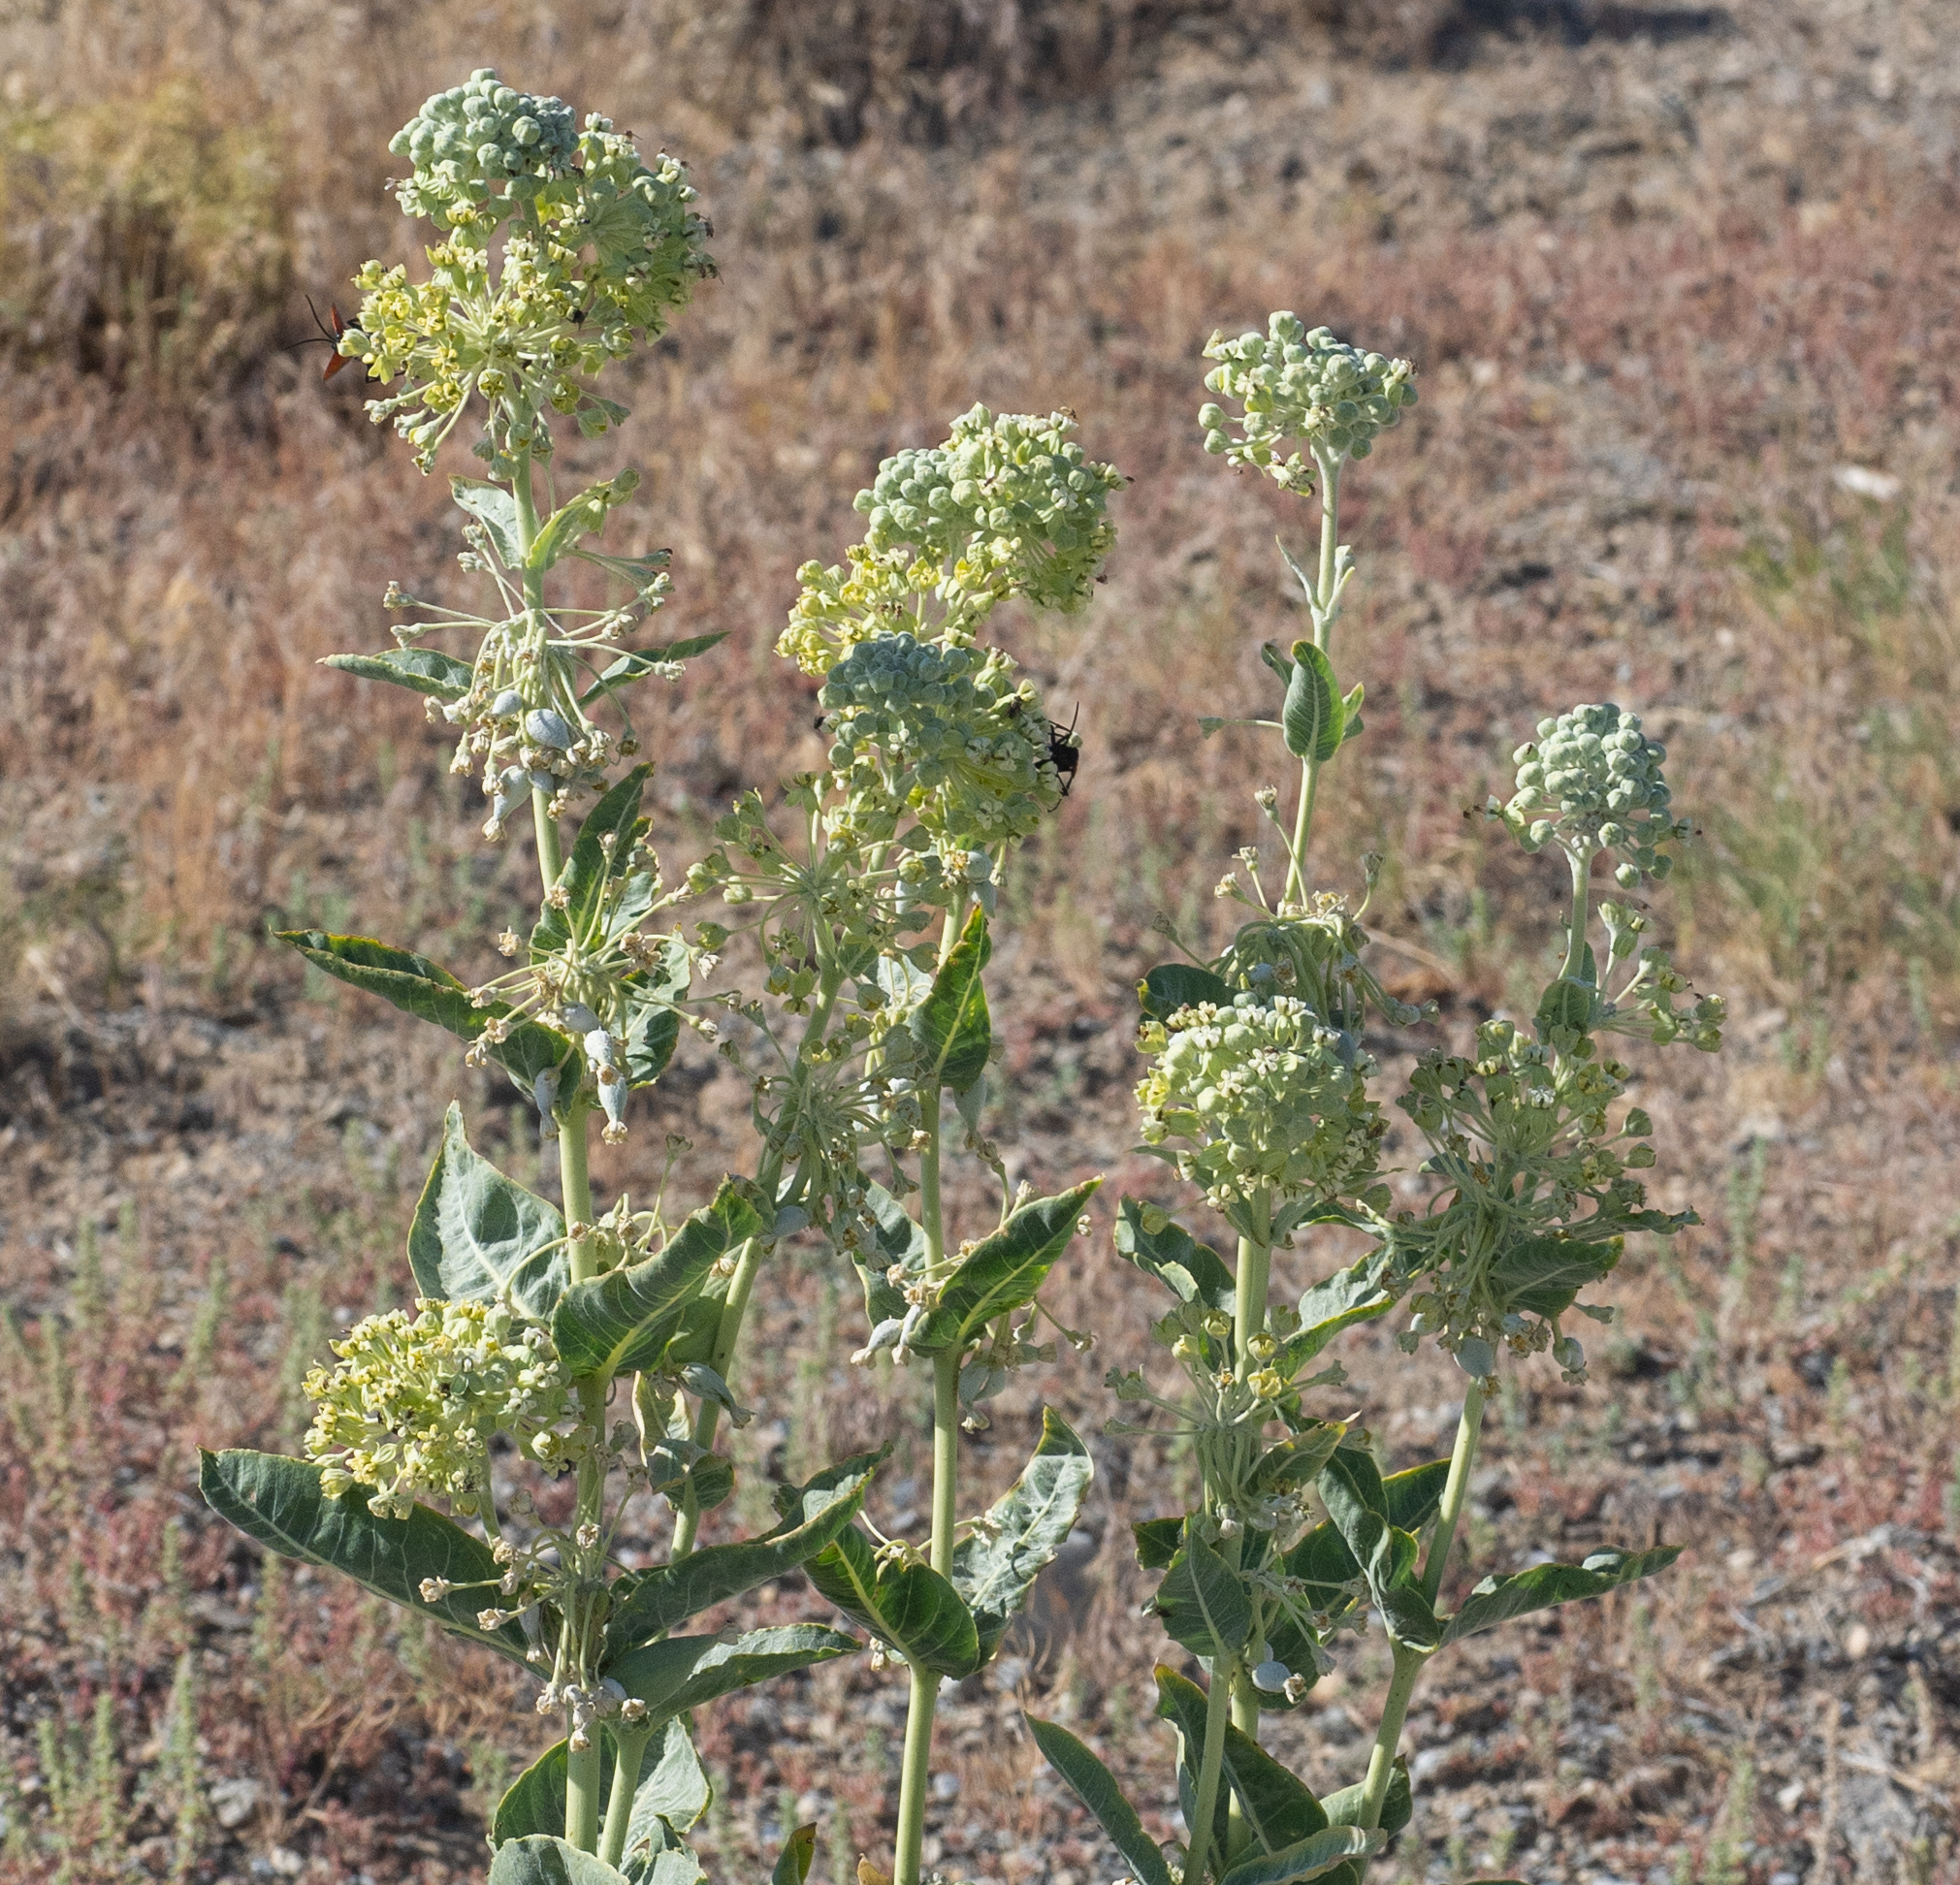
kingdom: Plantae
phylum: Tracheophyta
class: Magnoliopsida
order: Gentianales
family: Apocynaceae
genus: Asclepias
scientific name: Asclepias erosa
